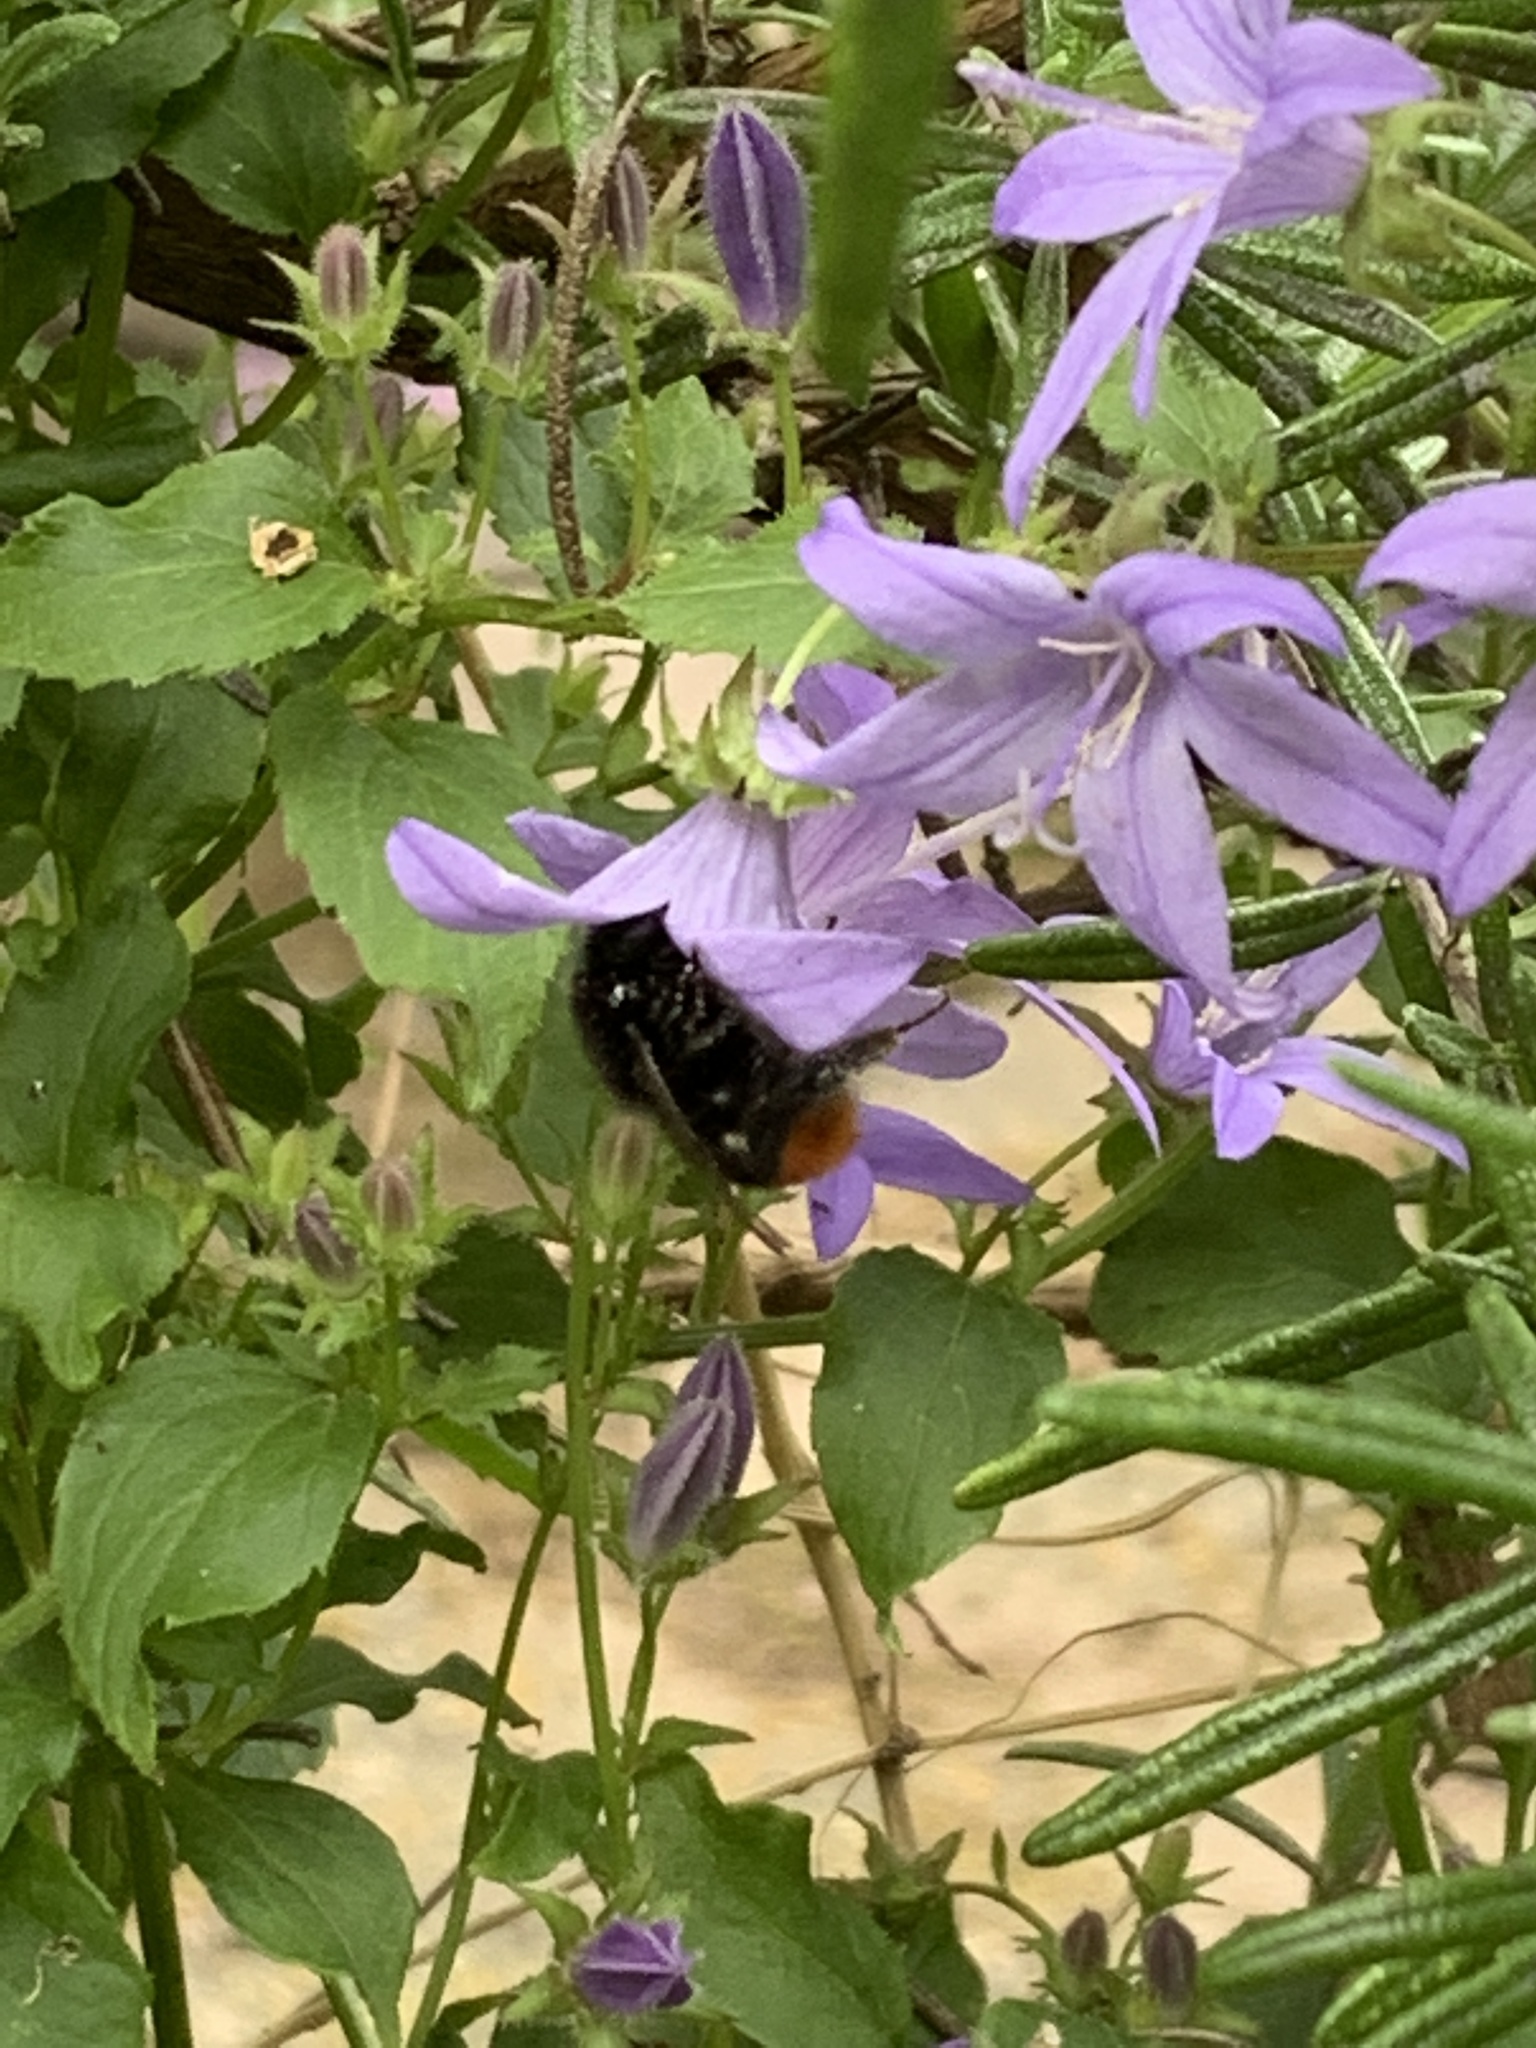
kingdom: Animalia
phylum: Arthropoda
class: Insecta
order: Hymenoptera
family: Apidae
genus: Bombus
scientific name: Bombus lapidarius
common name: Large red-tailed humble-bee
